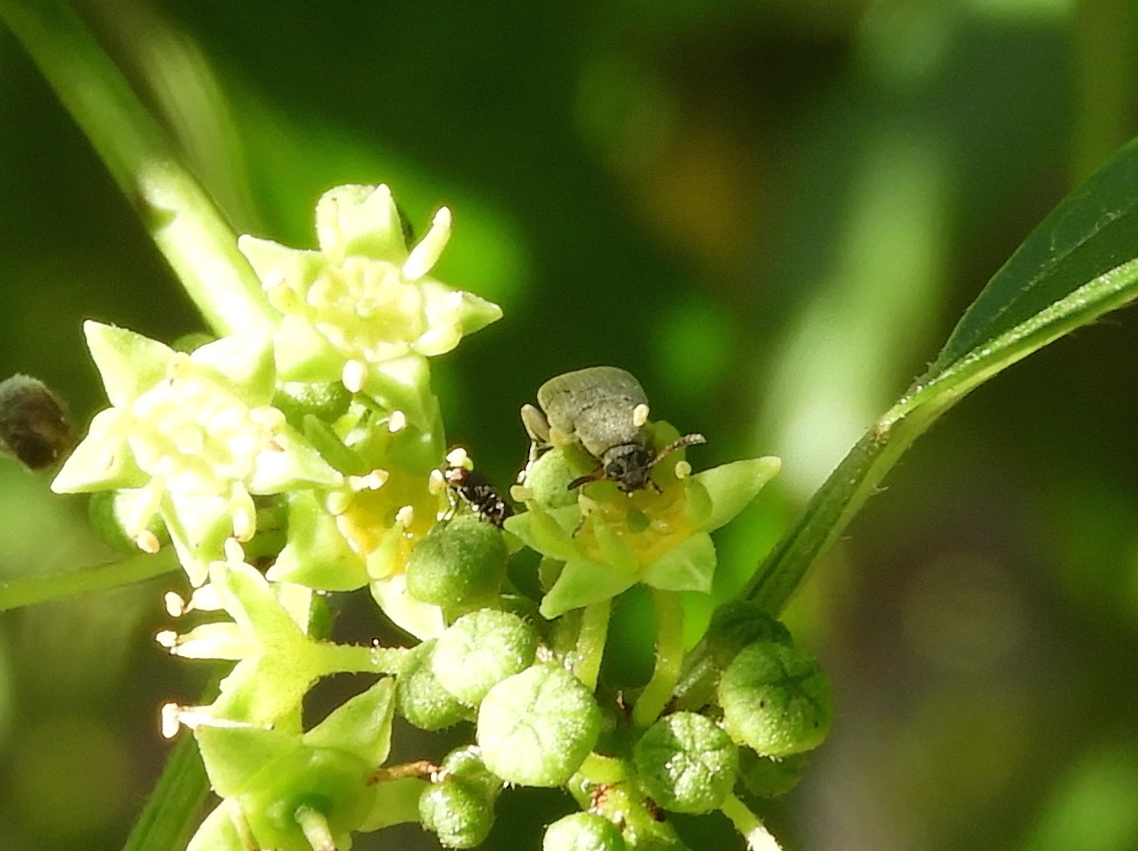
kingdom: Animalia
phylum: Arthropoda
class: Insecta
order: Coleoptera
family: Bruchidae
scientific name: Bruchidae
